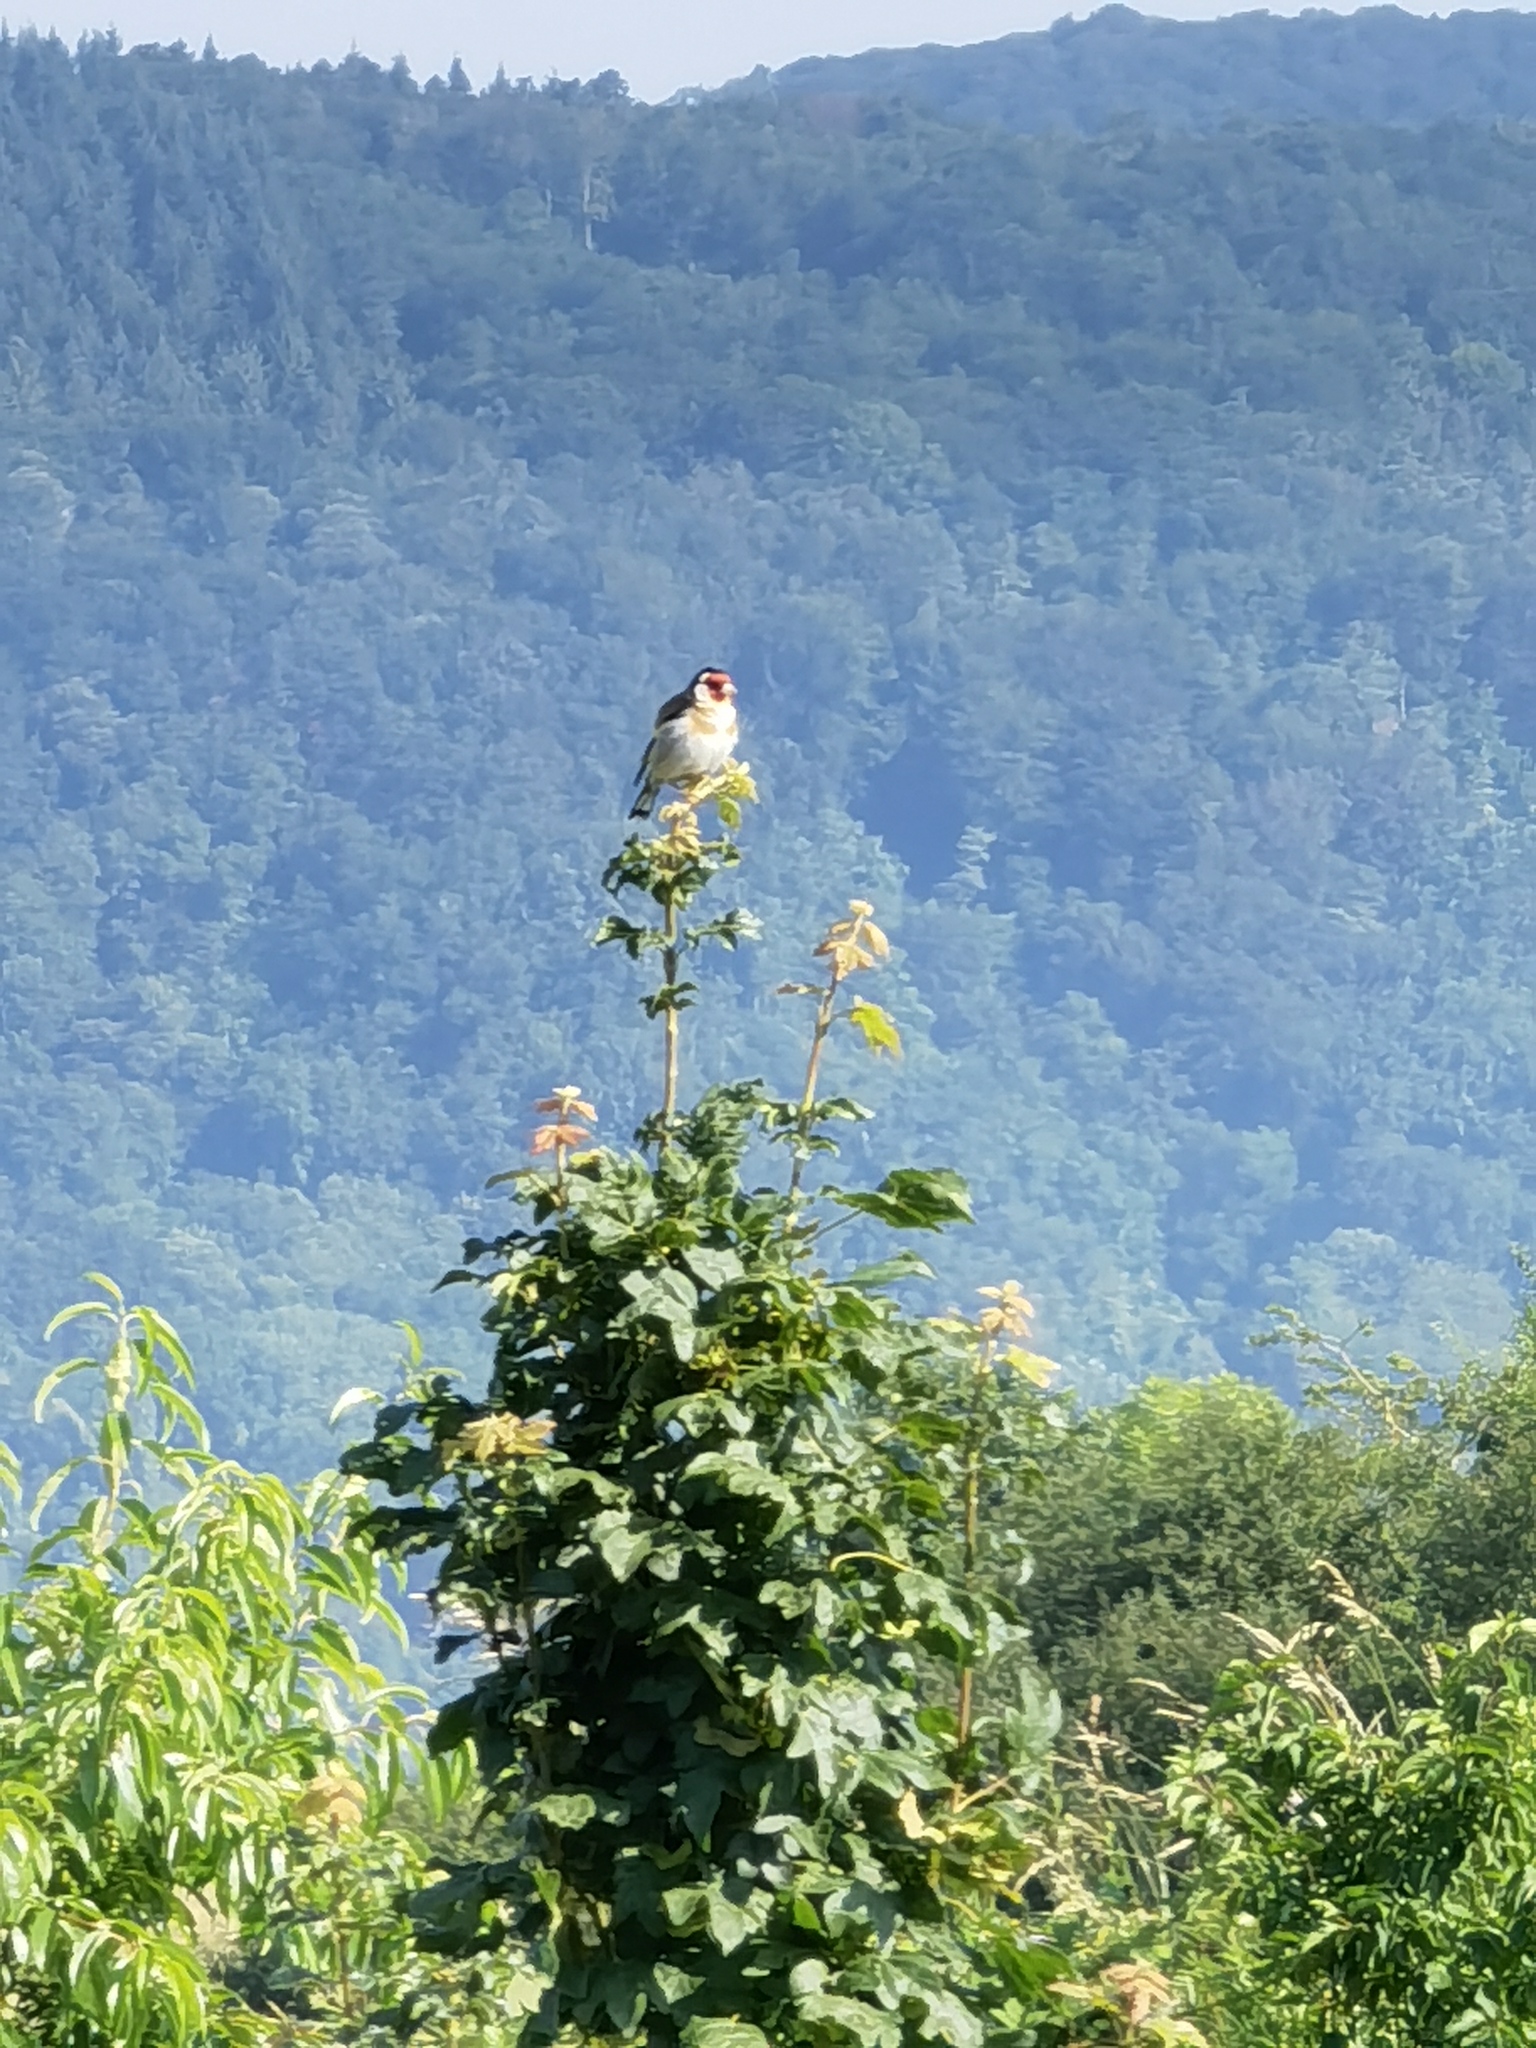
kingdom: Animalia
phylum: Chordata
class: Aves
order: Passeriformes
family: Fringillidae
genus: Carduelis
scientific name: Carduelis carduelis
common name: European goldfinch
